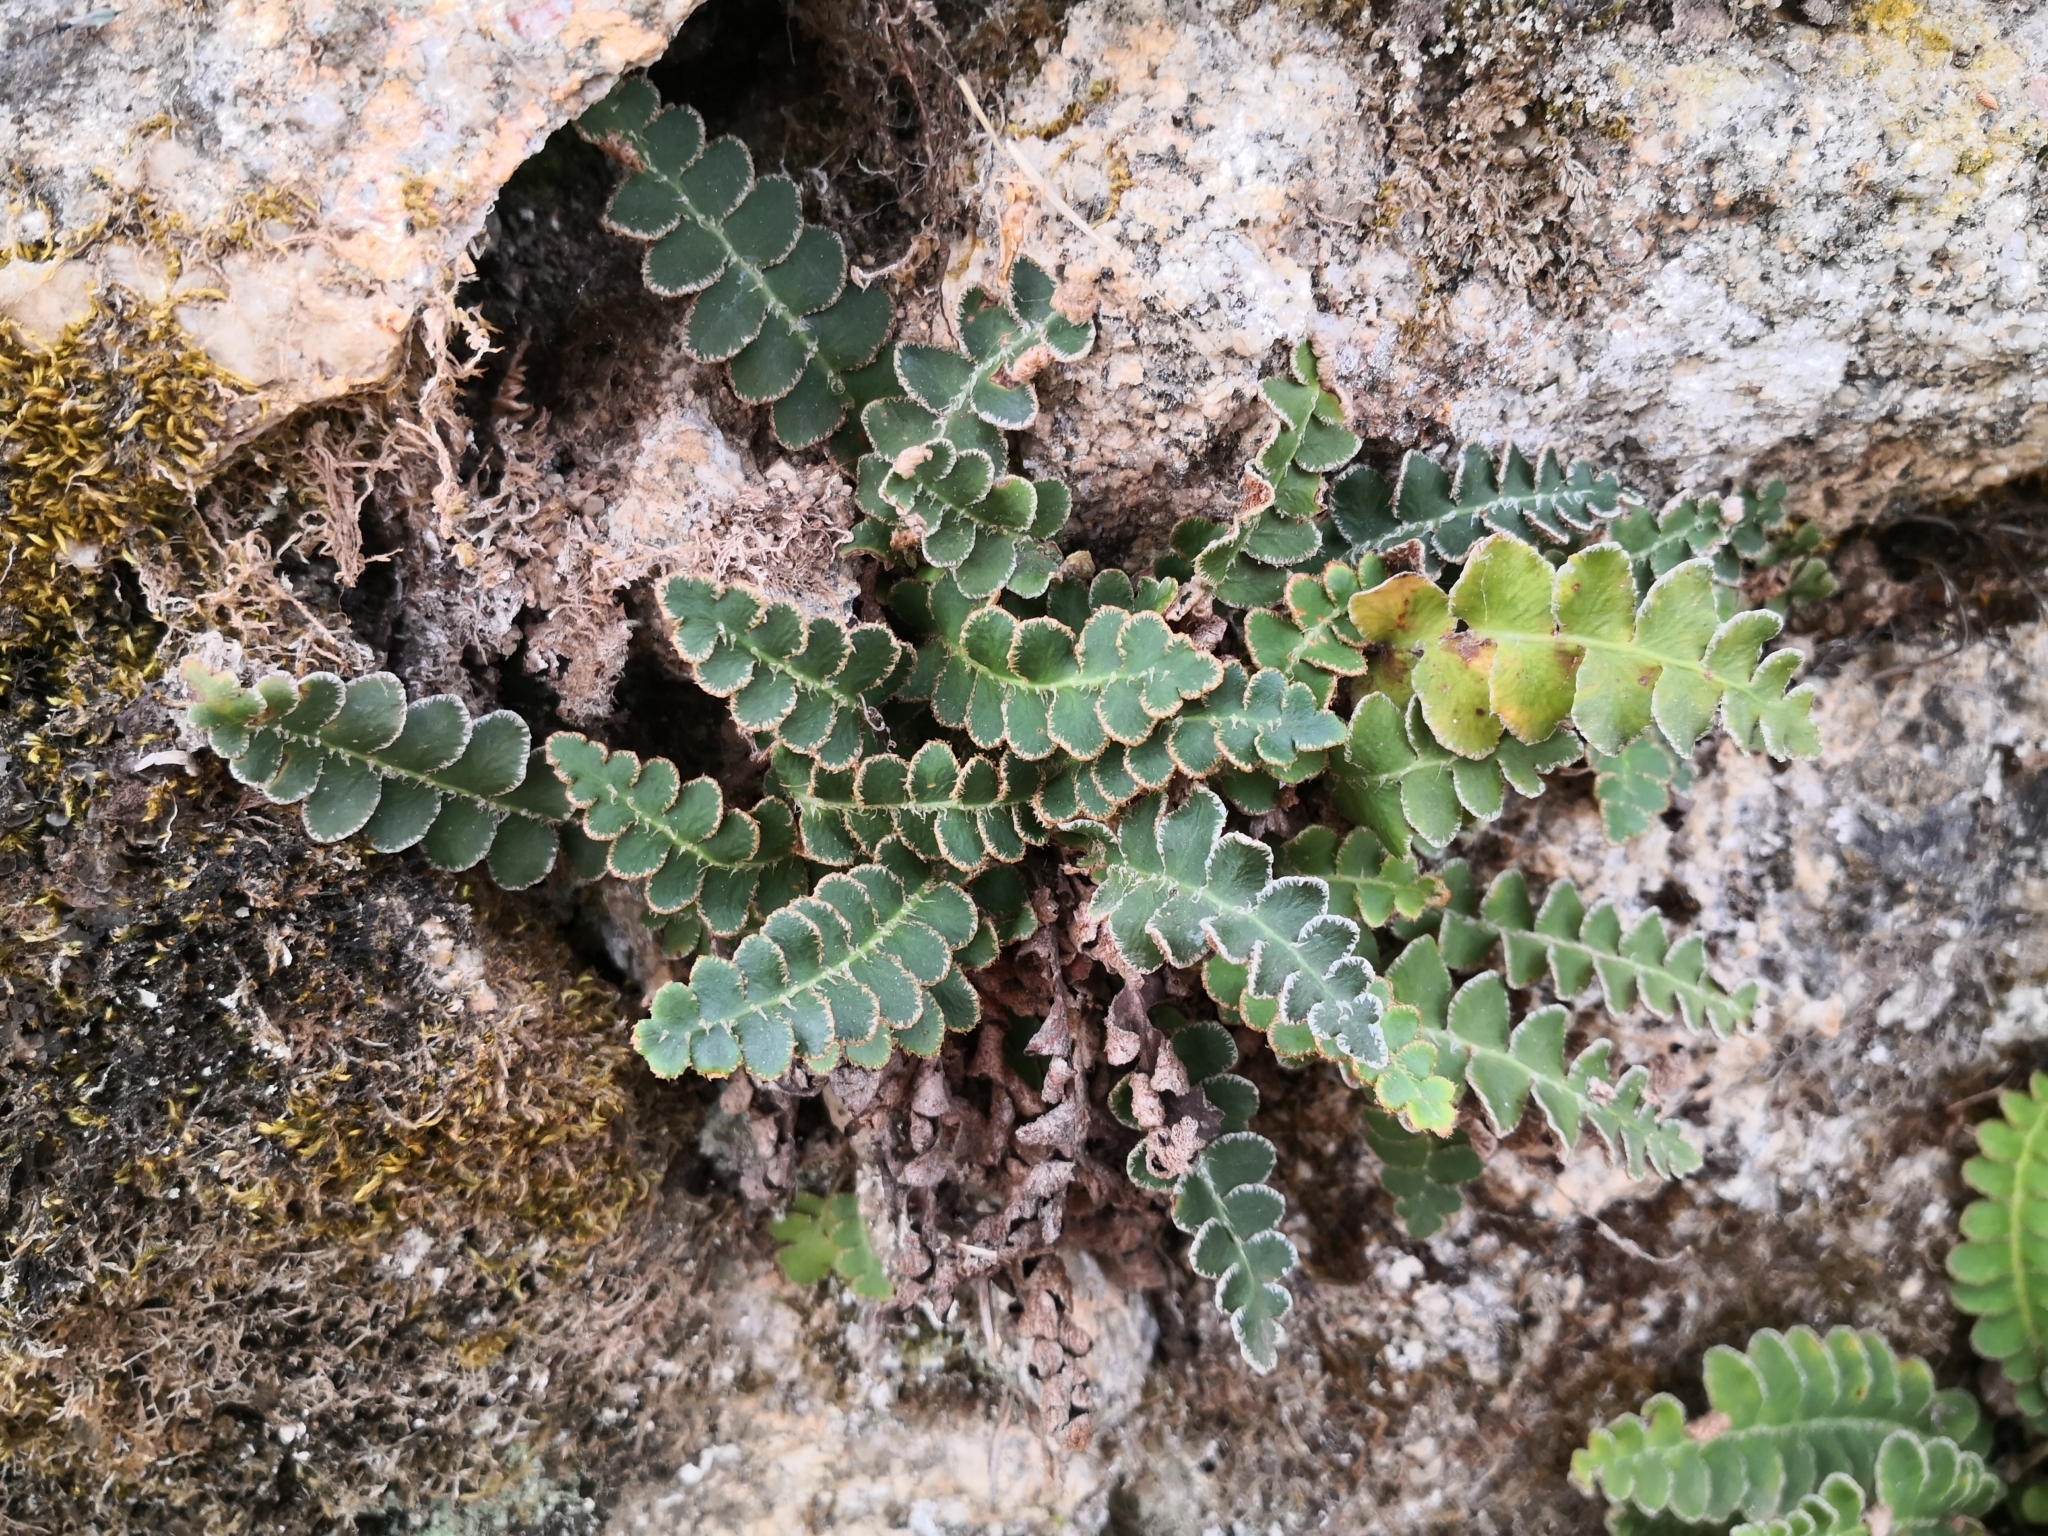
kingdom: Plantae
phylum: Tracheophyta
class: Polypodiopsida
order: Polypodiales
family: Aspleniaceae
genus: Asplenium
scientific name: Asplenium ceterach
